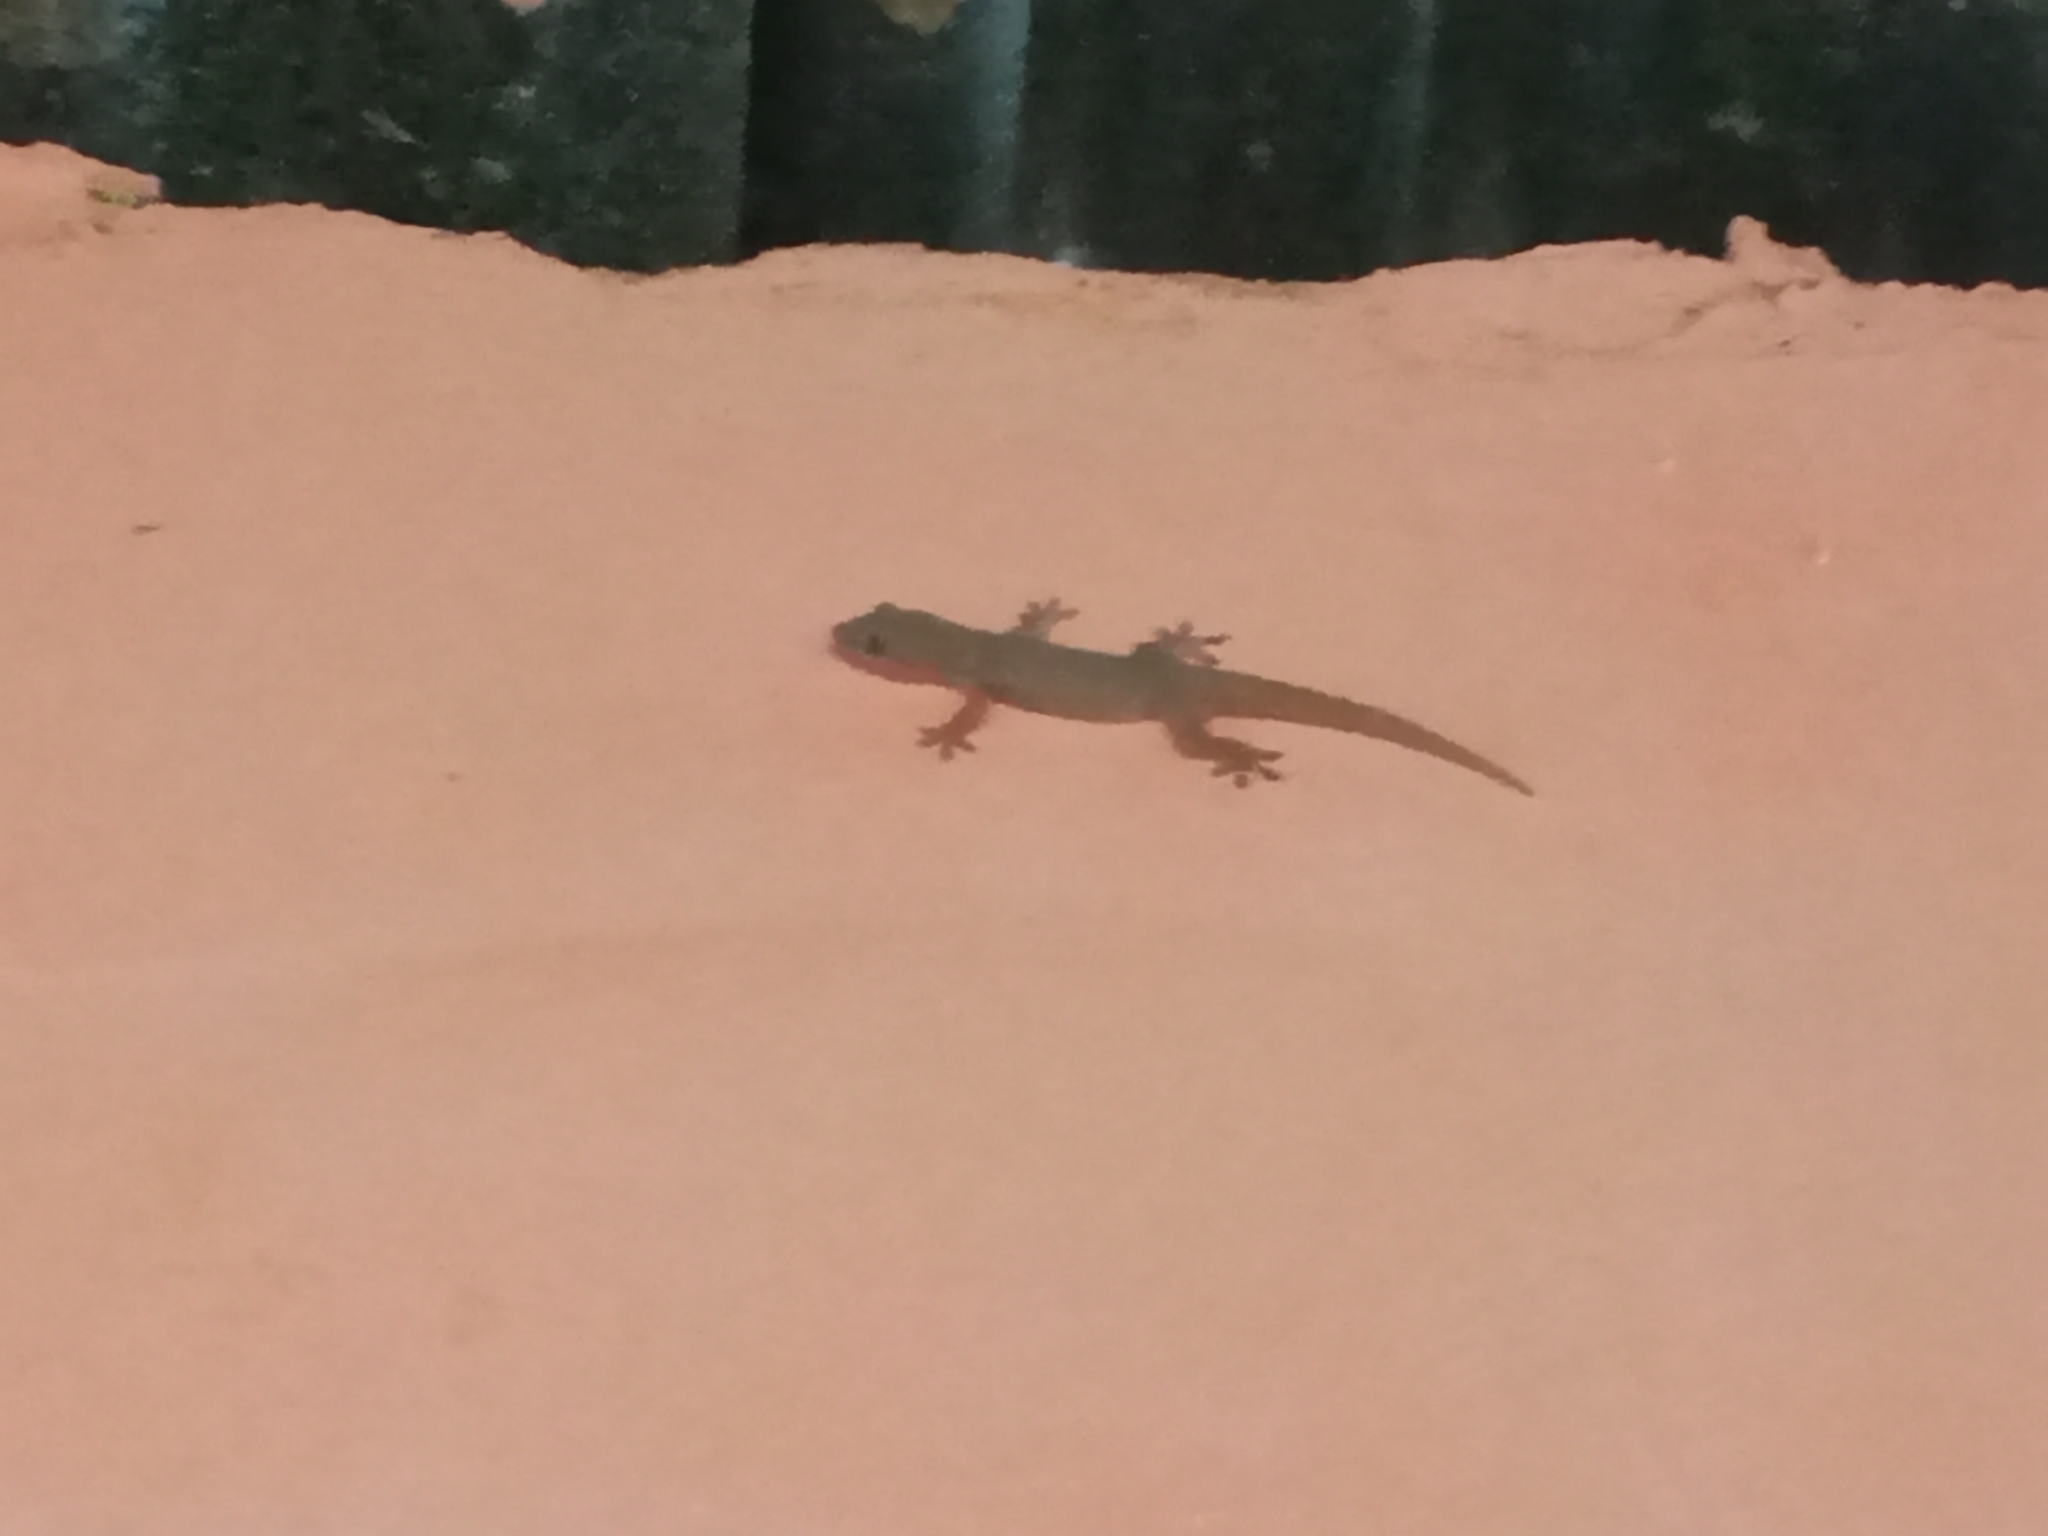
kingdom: Animalia
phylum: Chordata
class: Squamata
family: Gekkonidae
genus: Hemidactylus
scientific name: Hemidactylus frenatus
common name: Common house gecko
